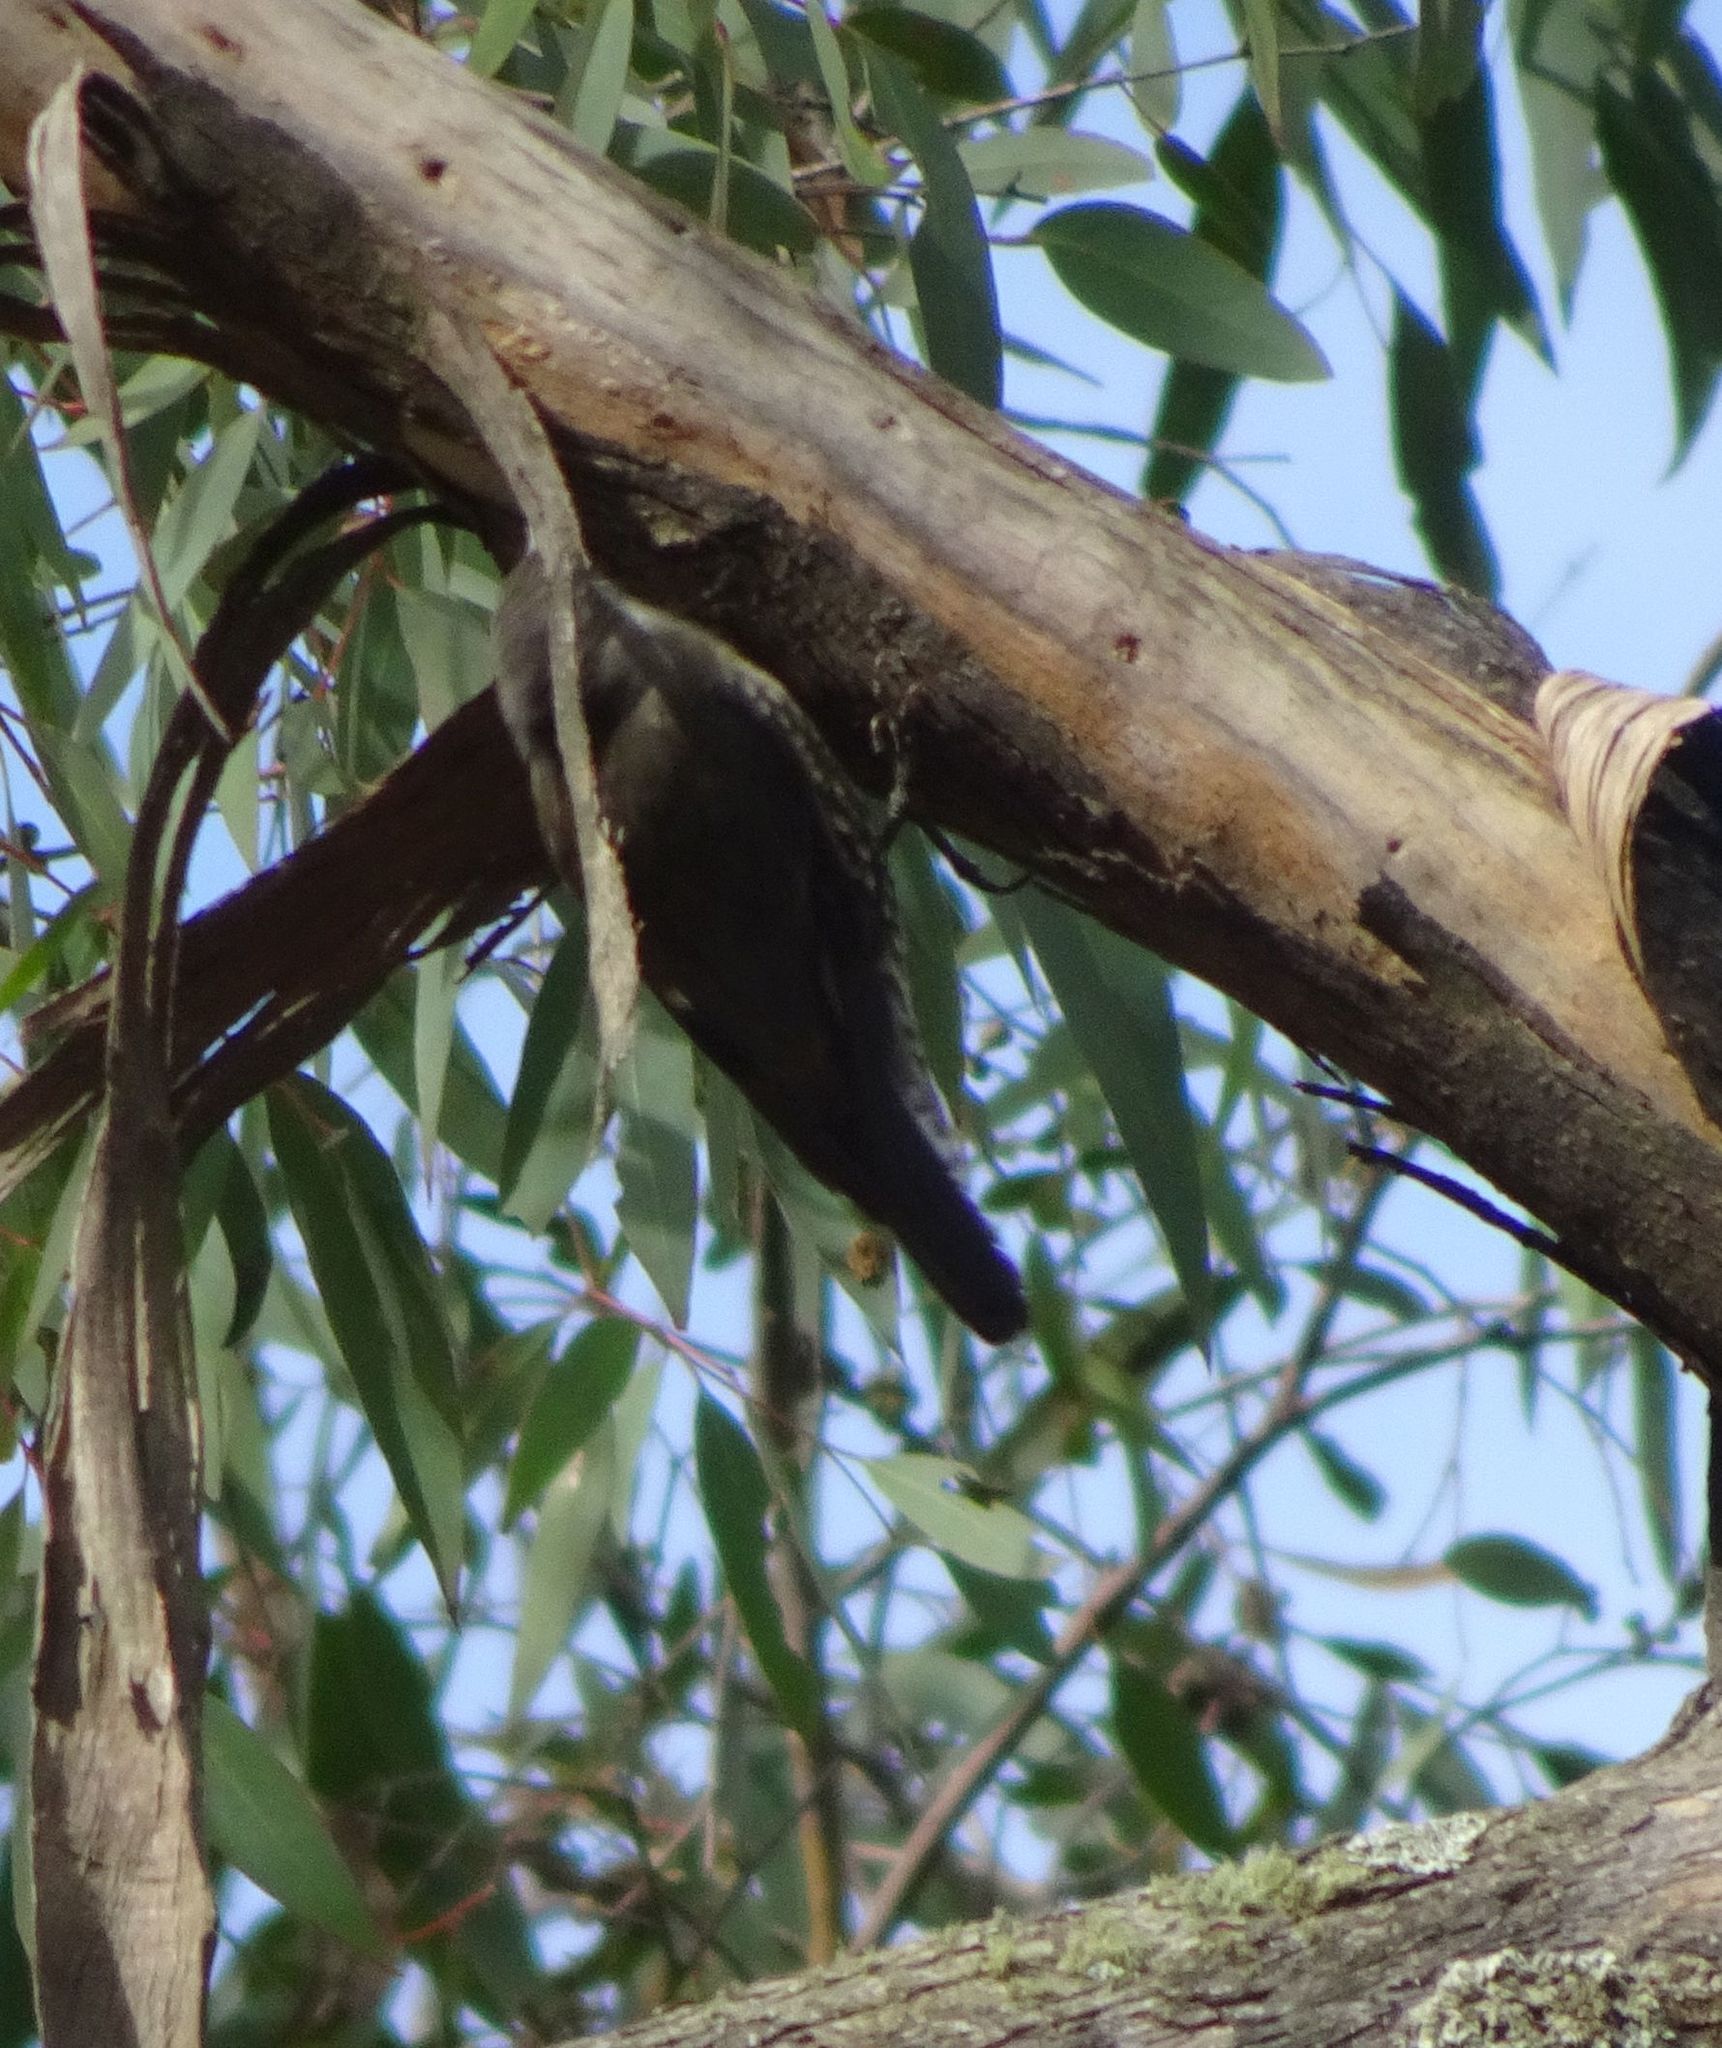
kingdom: Animalia
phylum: Chordata
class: Aves
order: Passeriformes
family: Climacteridae
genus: Cormobates
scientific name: Cormobates leucophaea
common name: White-throated treecreeper
